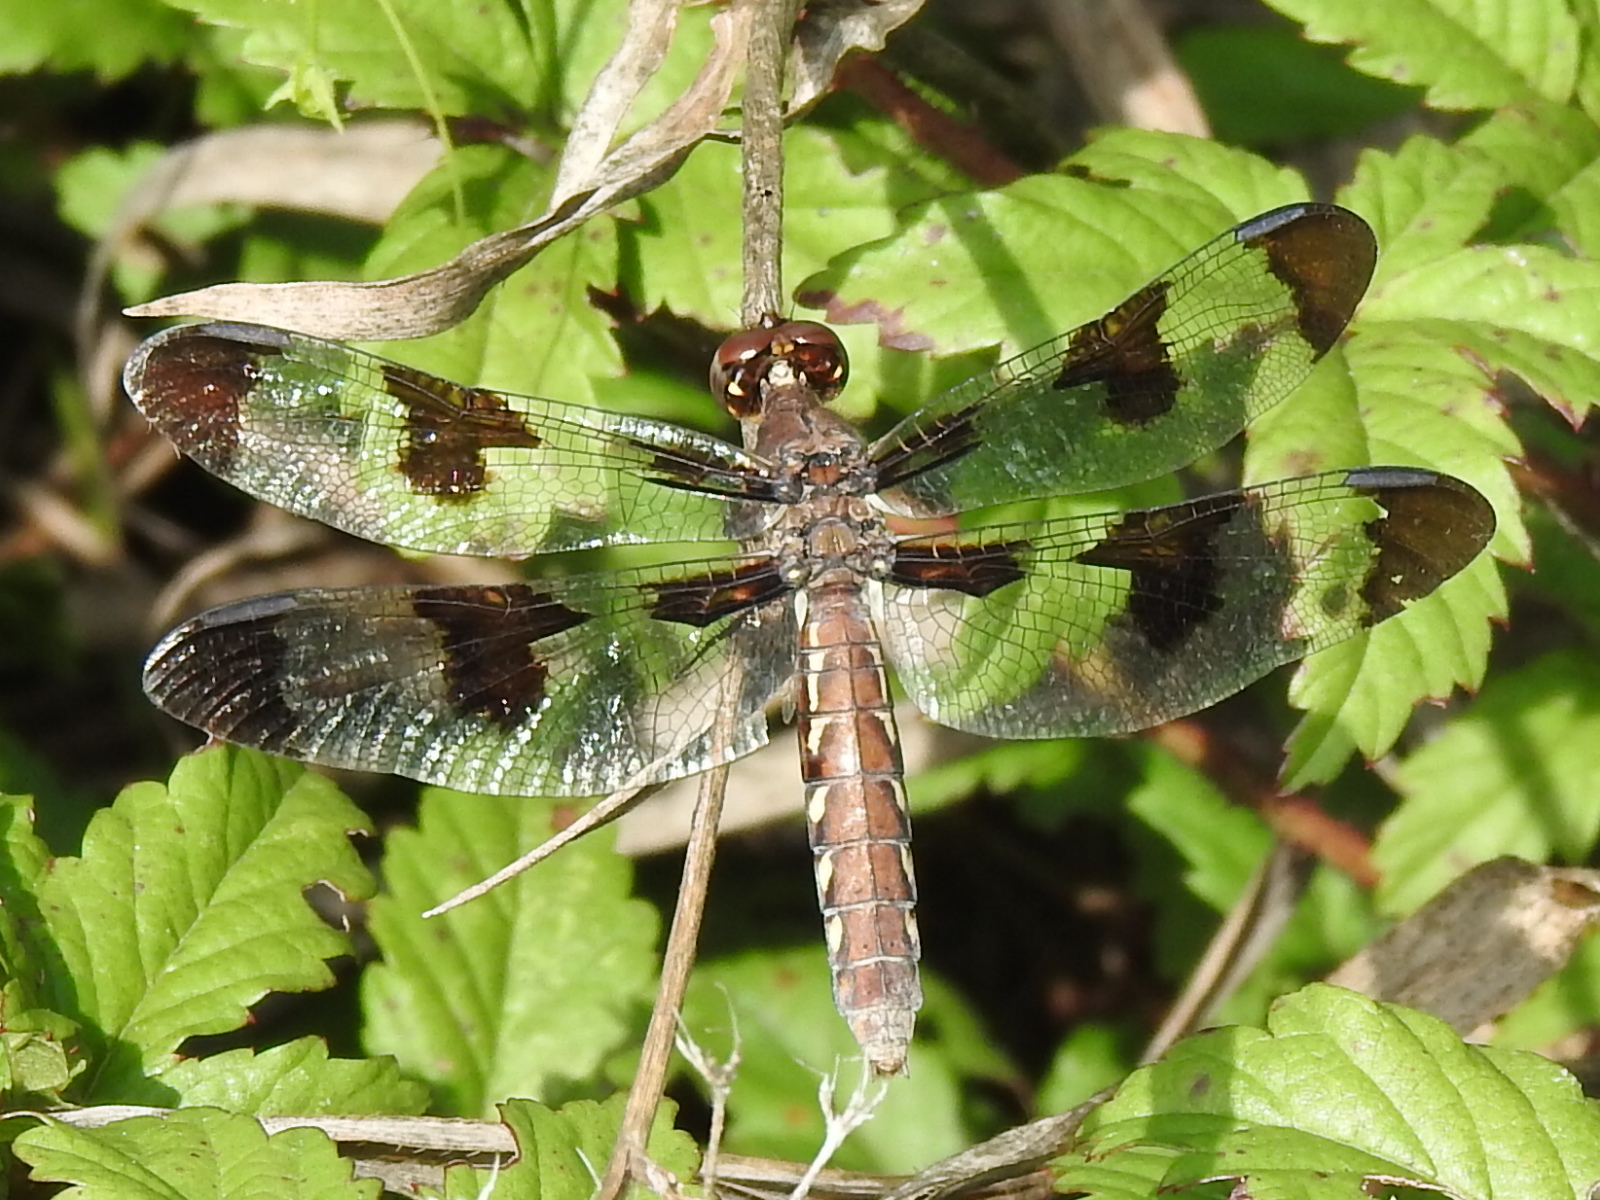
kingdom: Animalia
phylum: Arthropoda
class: Insecta
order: Odonata
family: Libellulidae
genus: Plathemis
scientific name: Plathemis lydia
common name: Common whitetail
